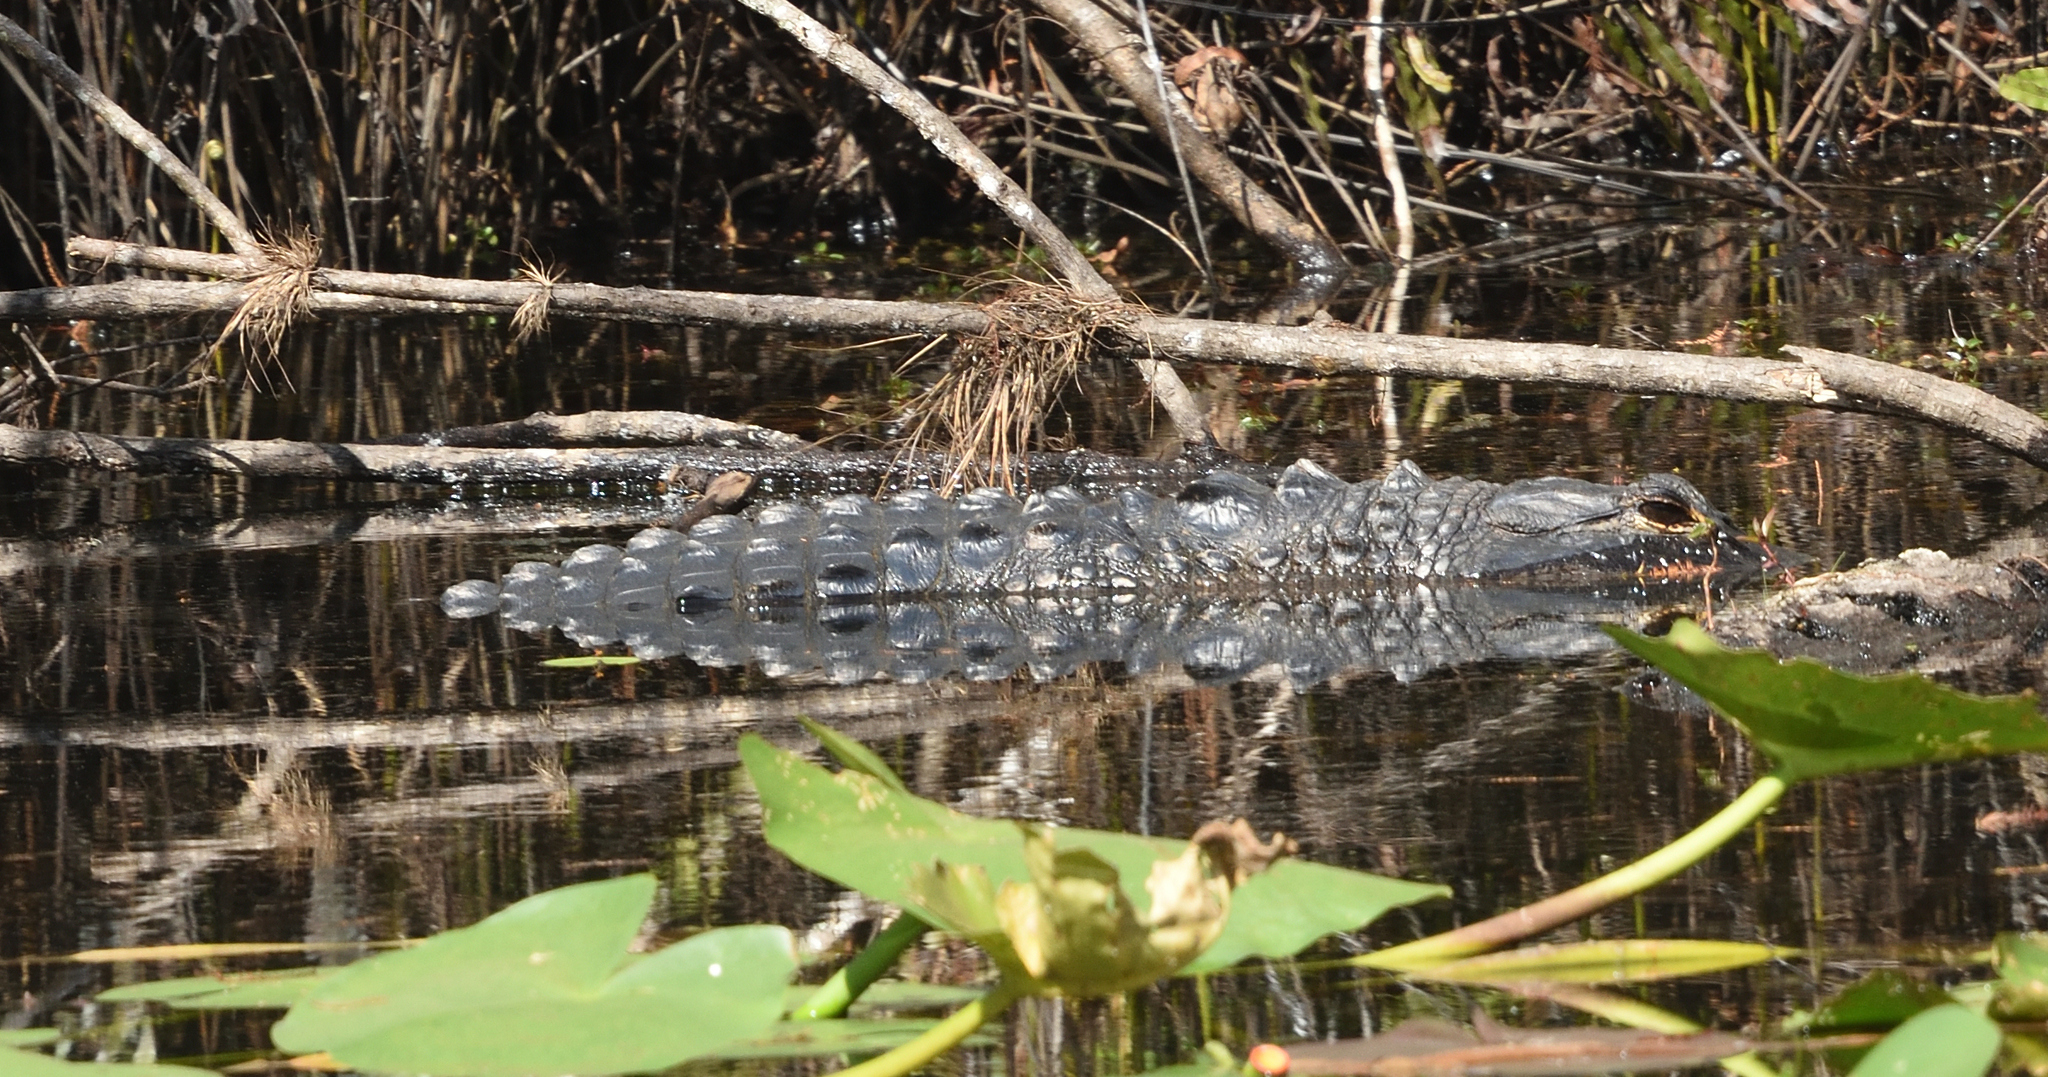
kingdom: Animalia
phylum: Chordata
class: Crocodylia
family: Alligatoridae
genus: Alligator
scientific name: Alligator mississippiensis
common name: American alligator
